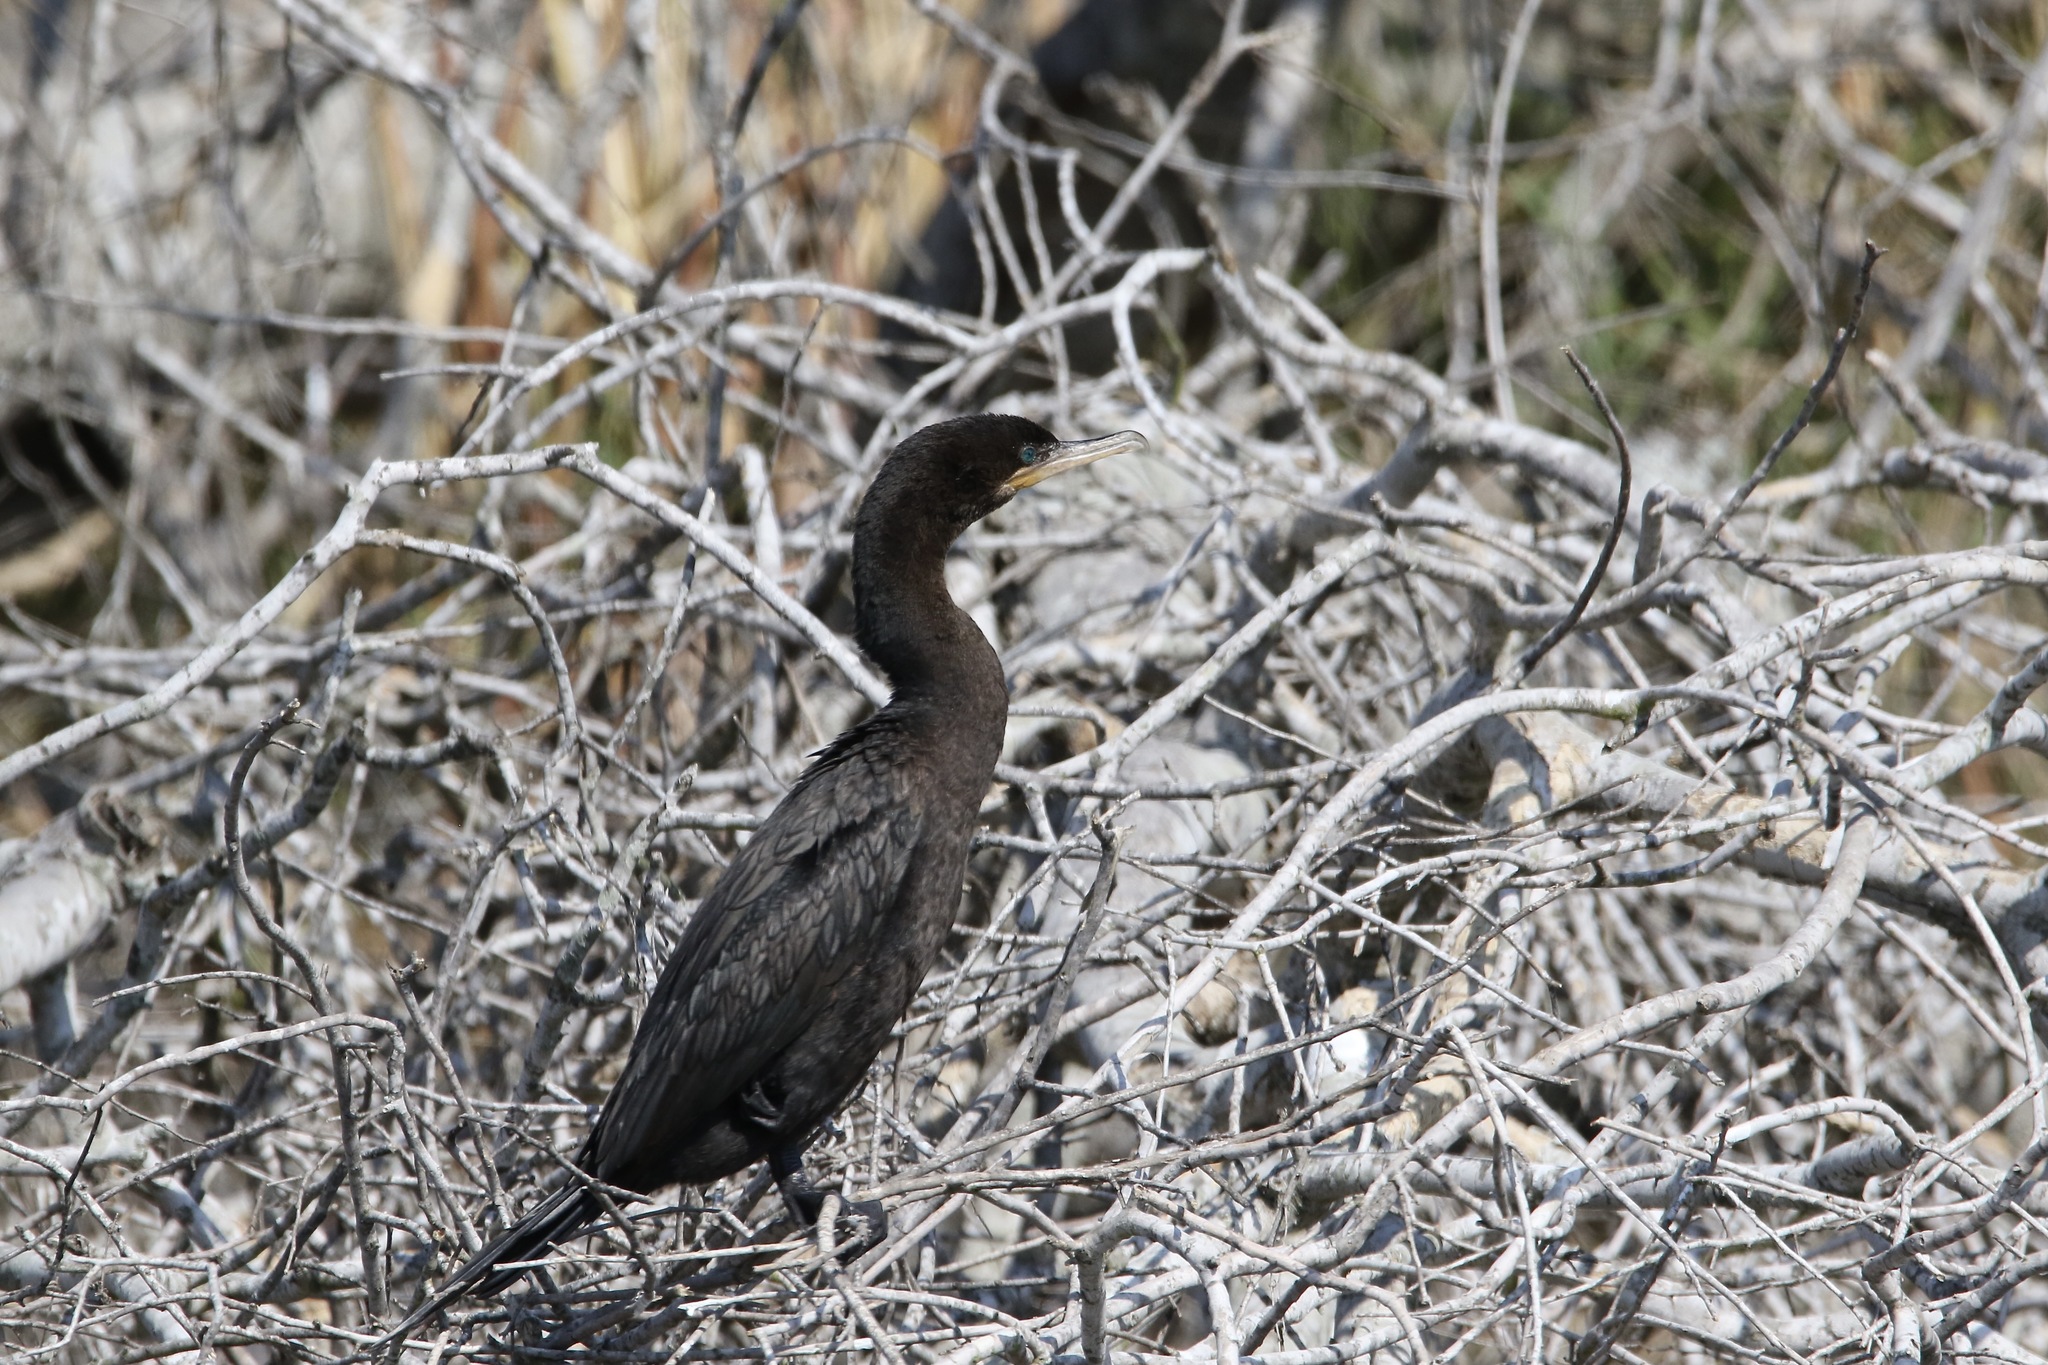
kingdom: Animalia
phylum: Chordata
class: Aves
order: Suliformes
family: Phalacrocoracidae
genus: Phalacrocorax
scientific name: Phalacrocorax brasilianus
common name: Neotropic cormorant
